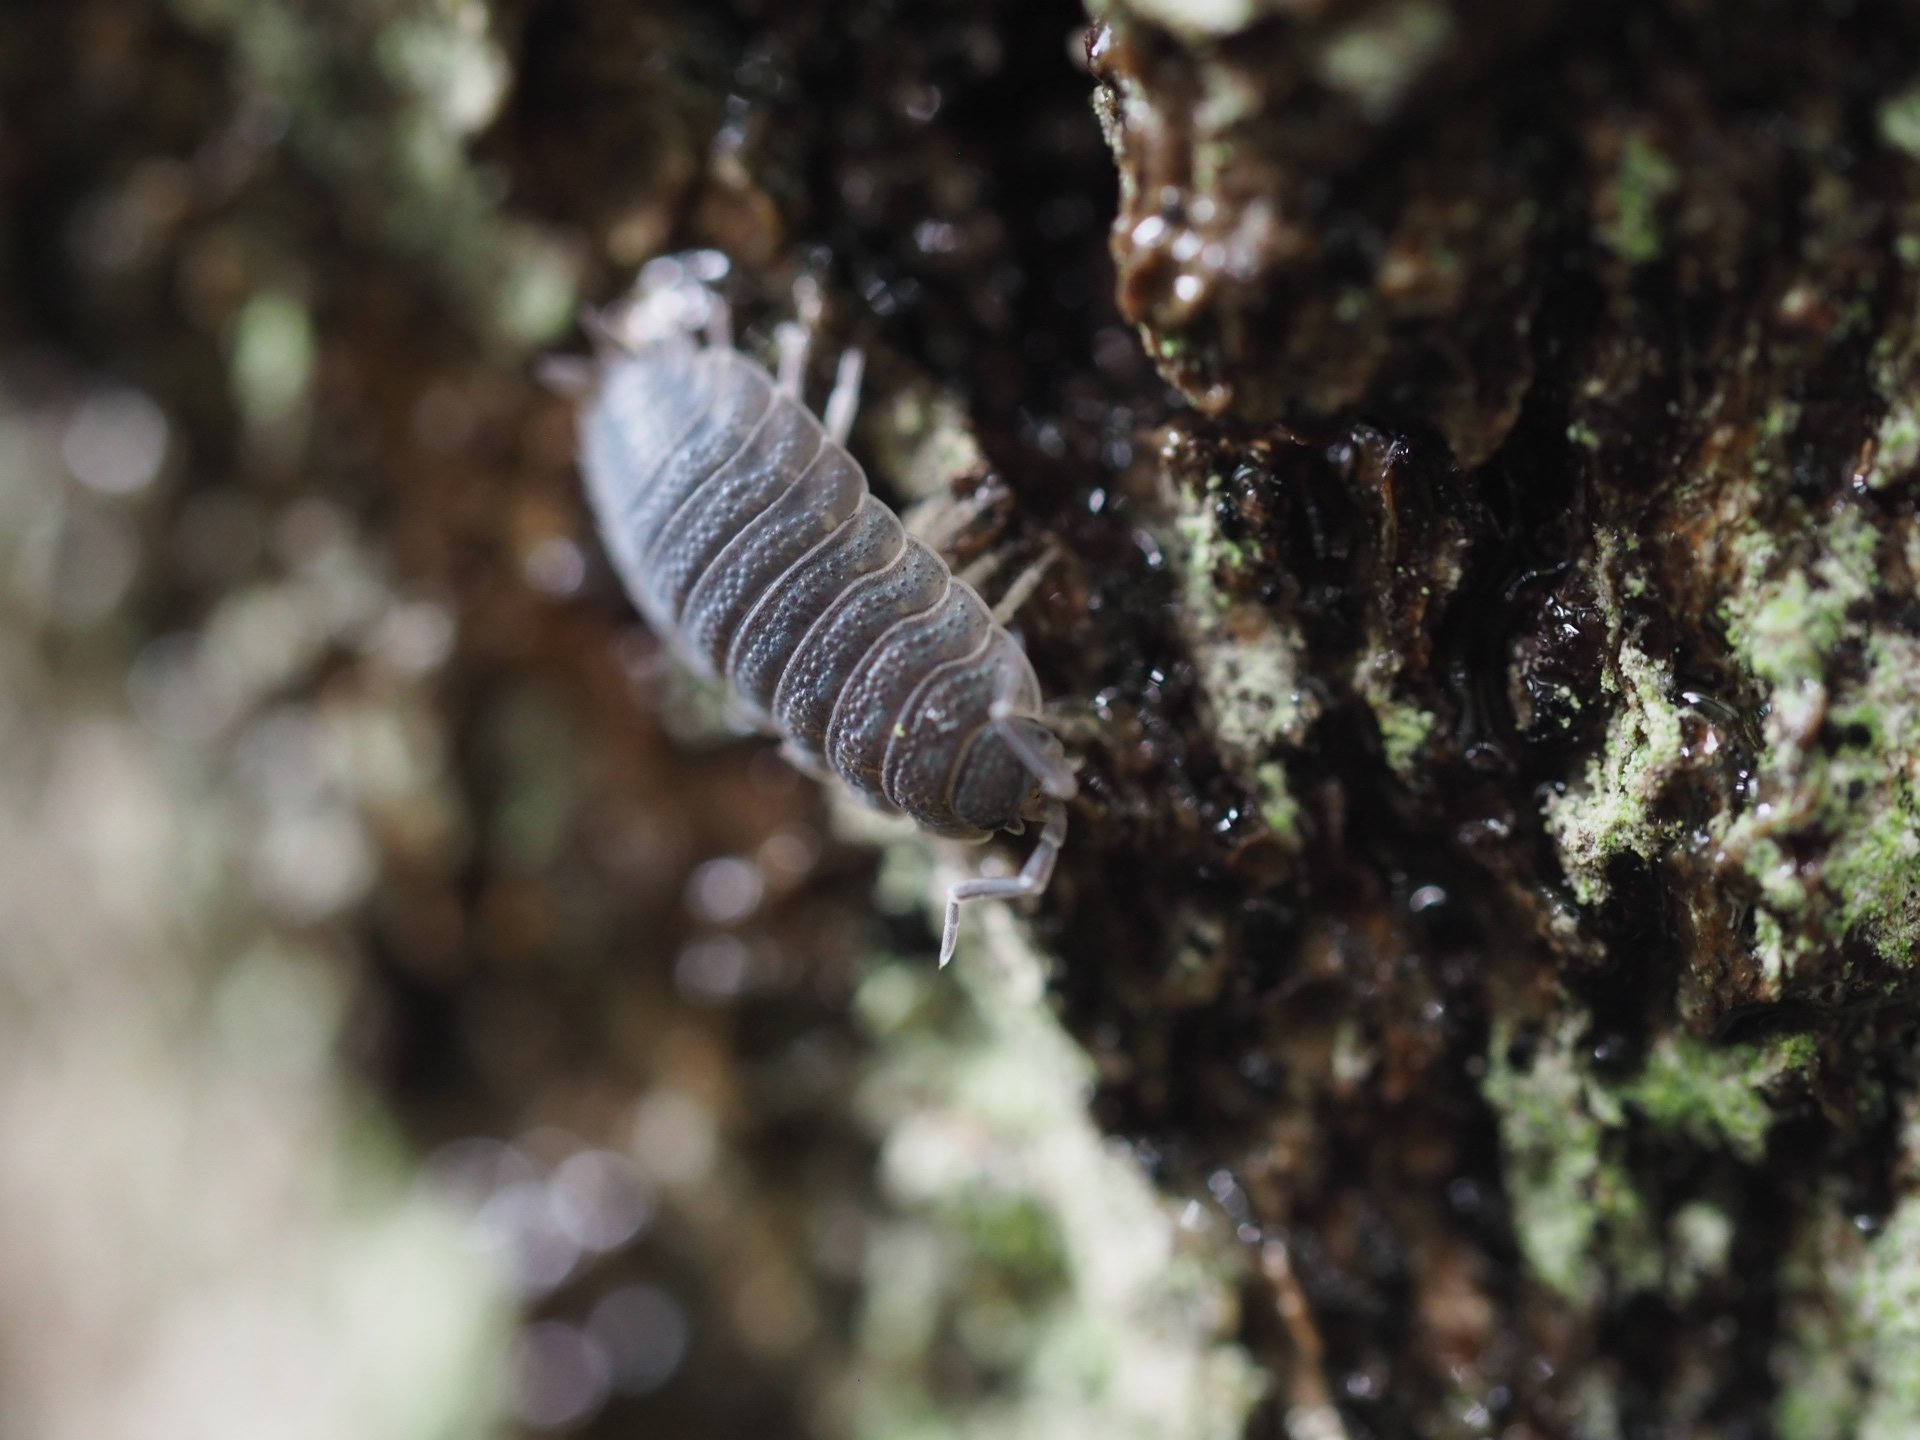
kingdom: Animalia
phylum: Arthropoda
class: Malacostraca
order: Isopoda
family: Porcellionidae
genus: Porcellio
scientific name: Porcellio scaber
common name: Common rough woodlouse
